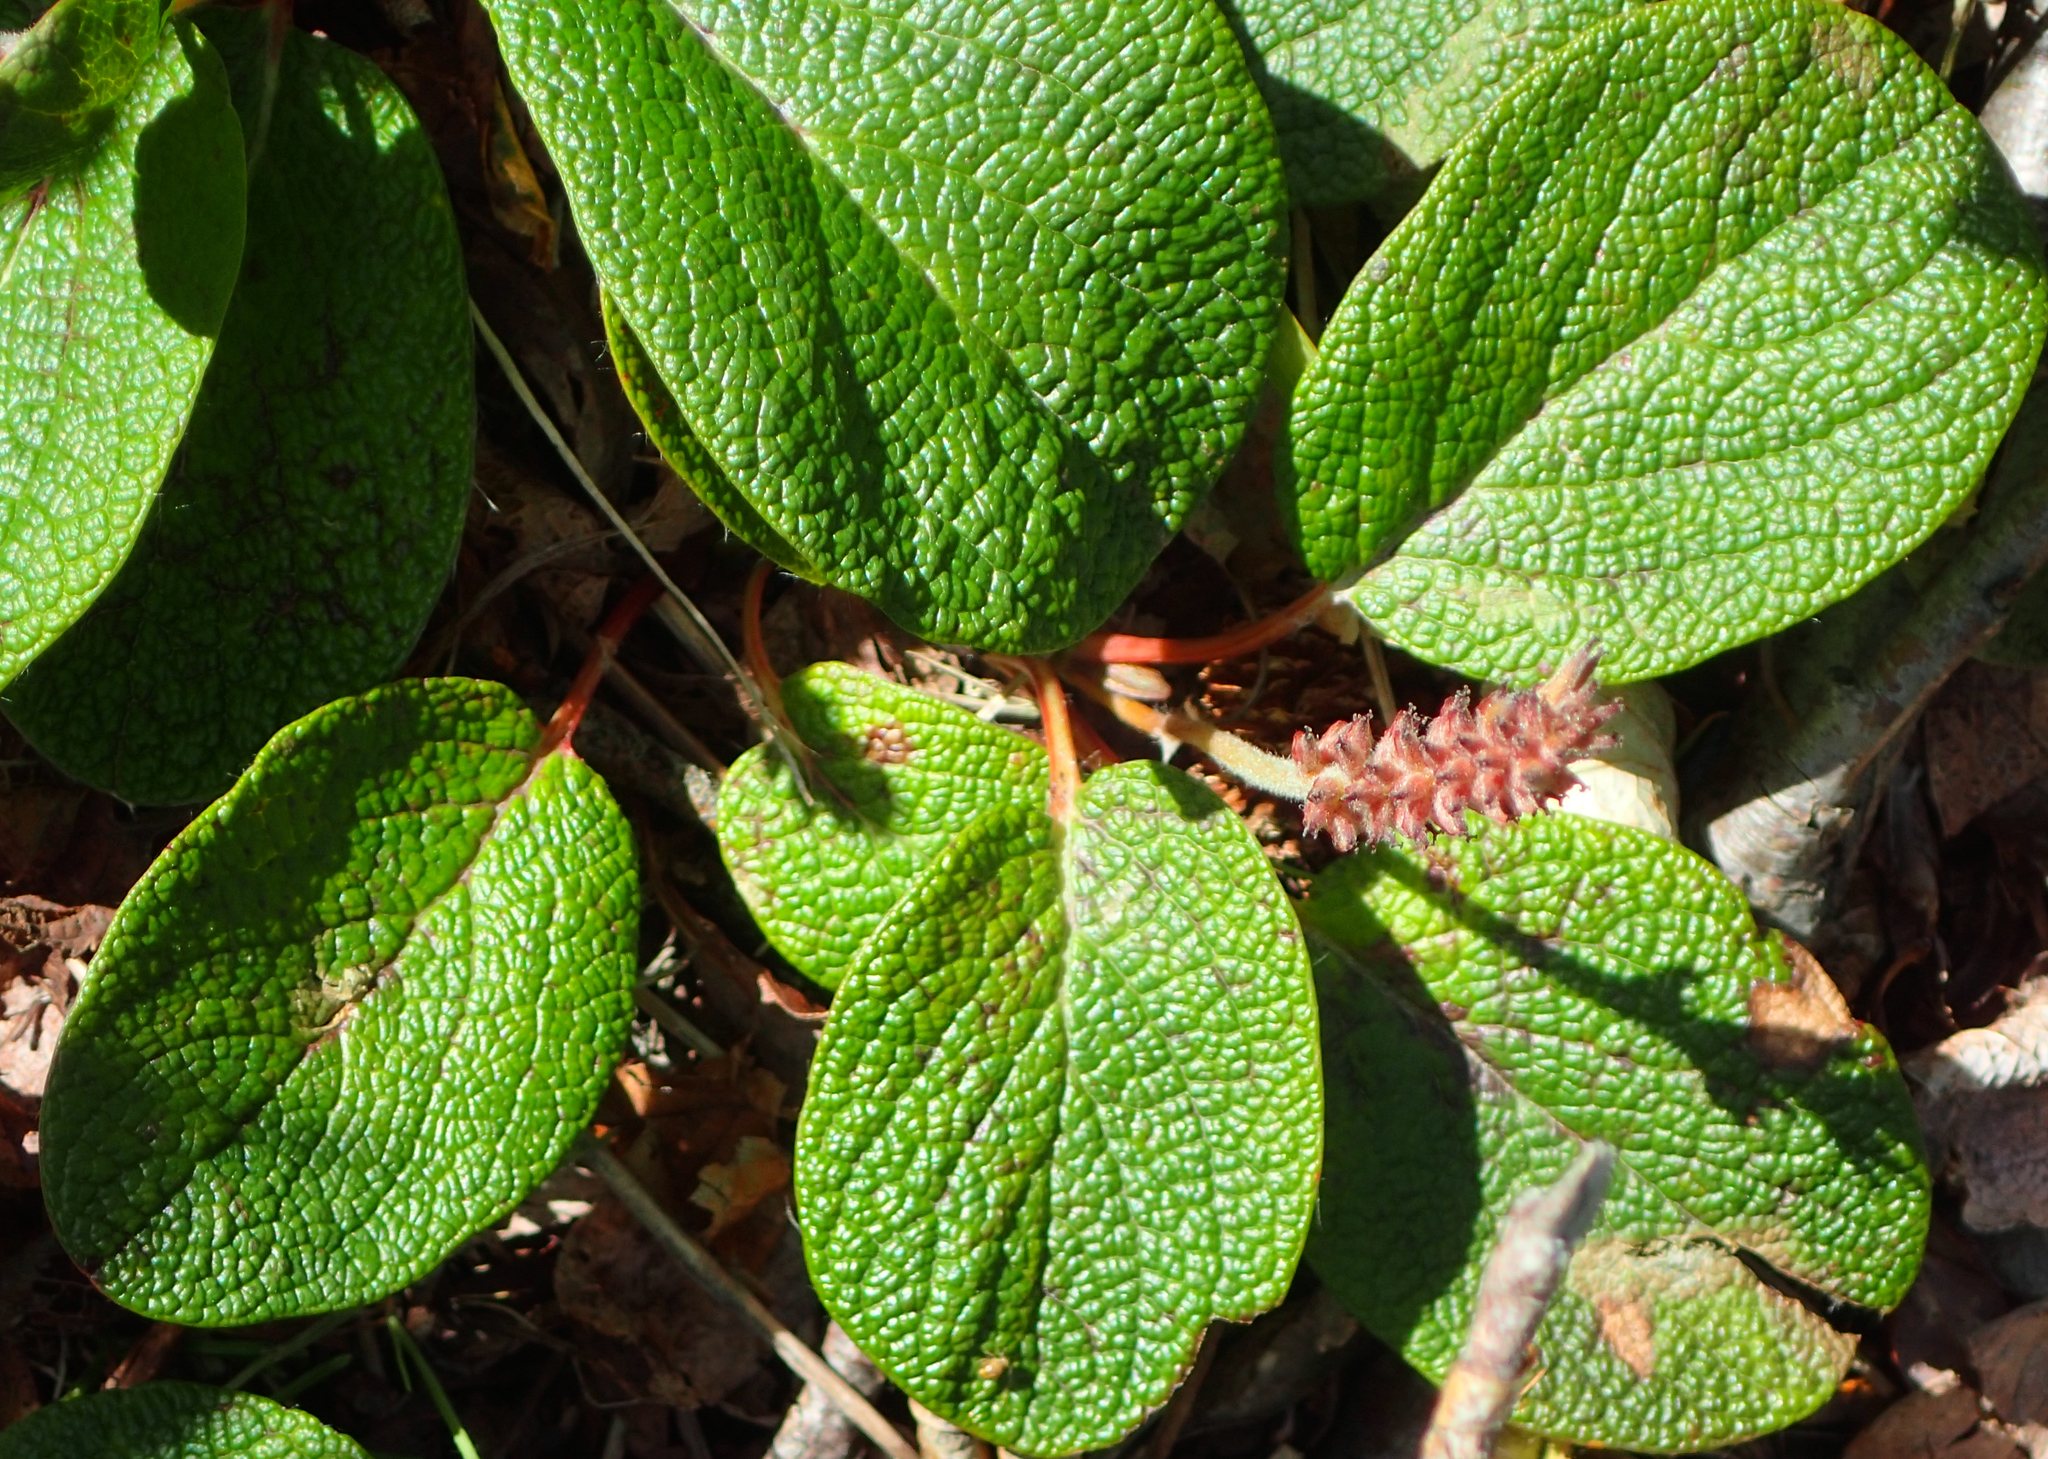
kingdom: Plantae
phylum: Tracheophyta
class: Magnoliopsida
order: Malpighiales
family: Salicaceae
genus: Salix
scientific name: Salix reticulata
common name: Net-leaved willow
